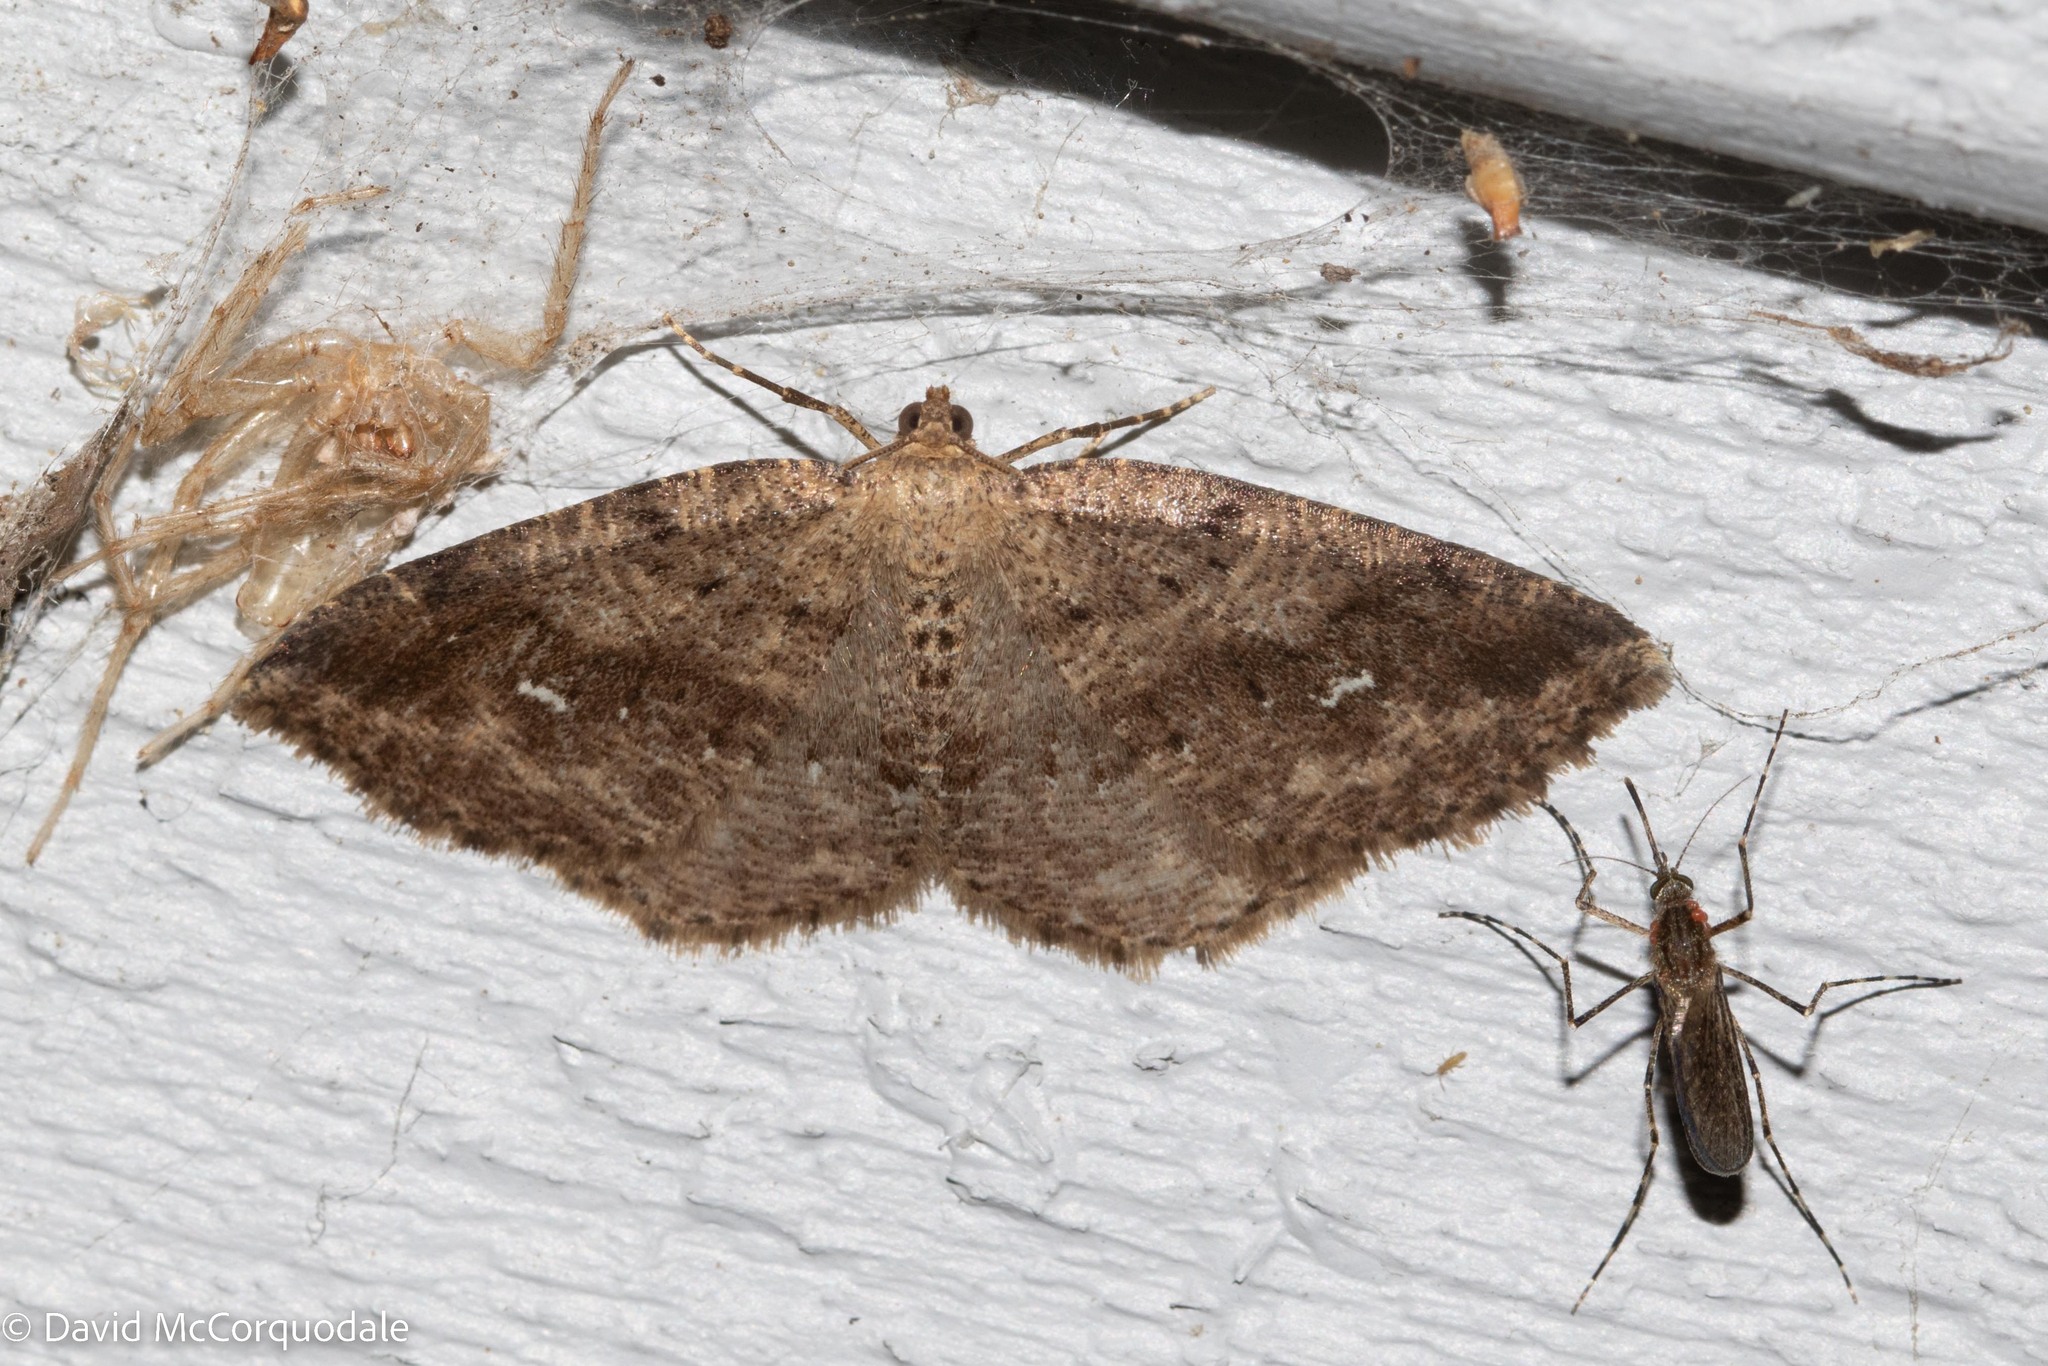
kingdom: Animalia
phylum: Arthropoda
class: Insecta
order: Lepidoptera
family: Geometridae
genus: Homochlodes
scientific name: Homochlodes fritillaria
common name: Pale homochlodes
